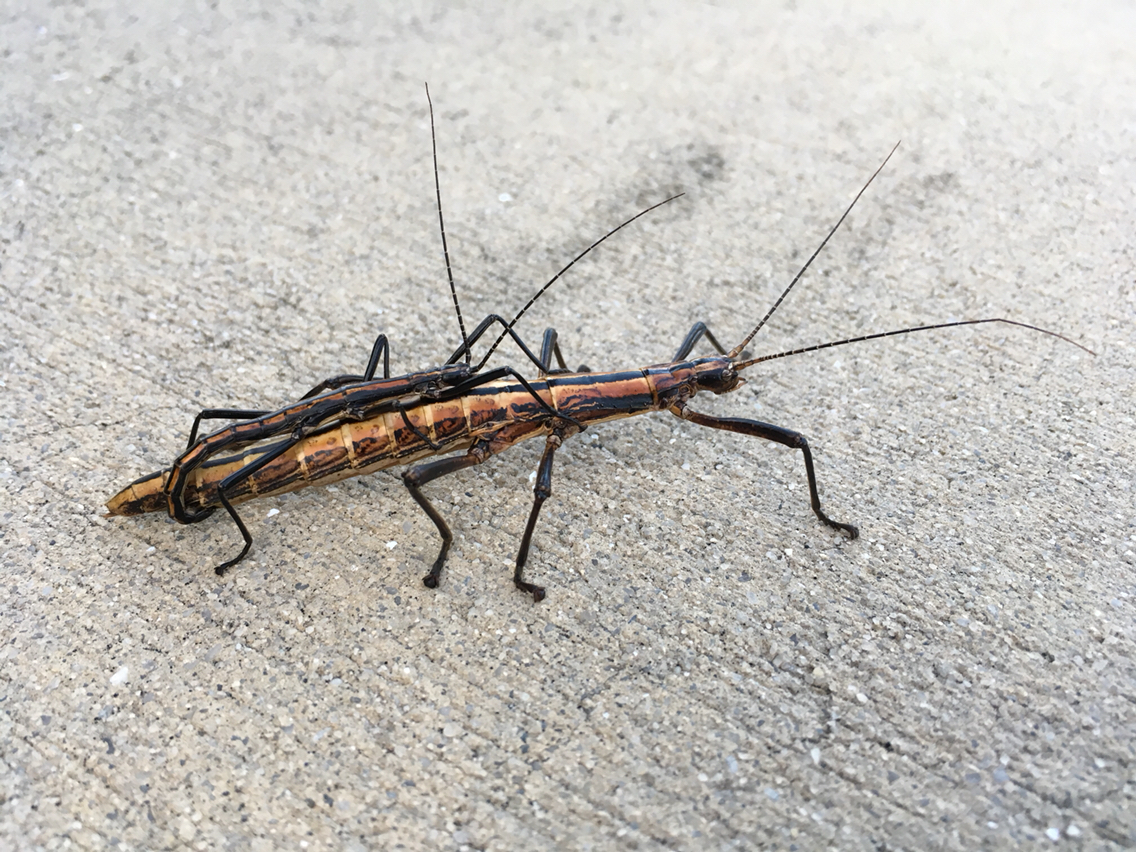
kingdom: Animalia
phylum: Arthropoda
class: Insecta
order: Phasmida
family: Pseudophasmatidae
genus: Anisomorpha
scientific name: Anisomorpha buprestoides
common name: Florida stick insect
